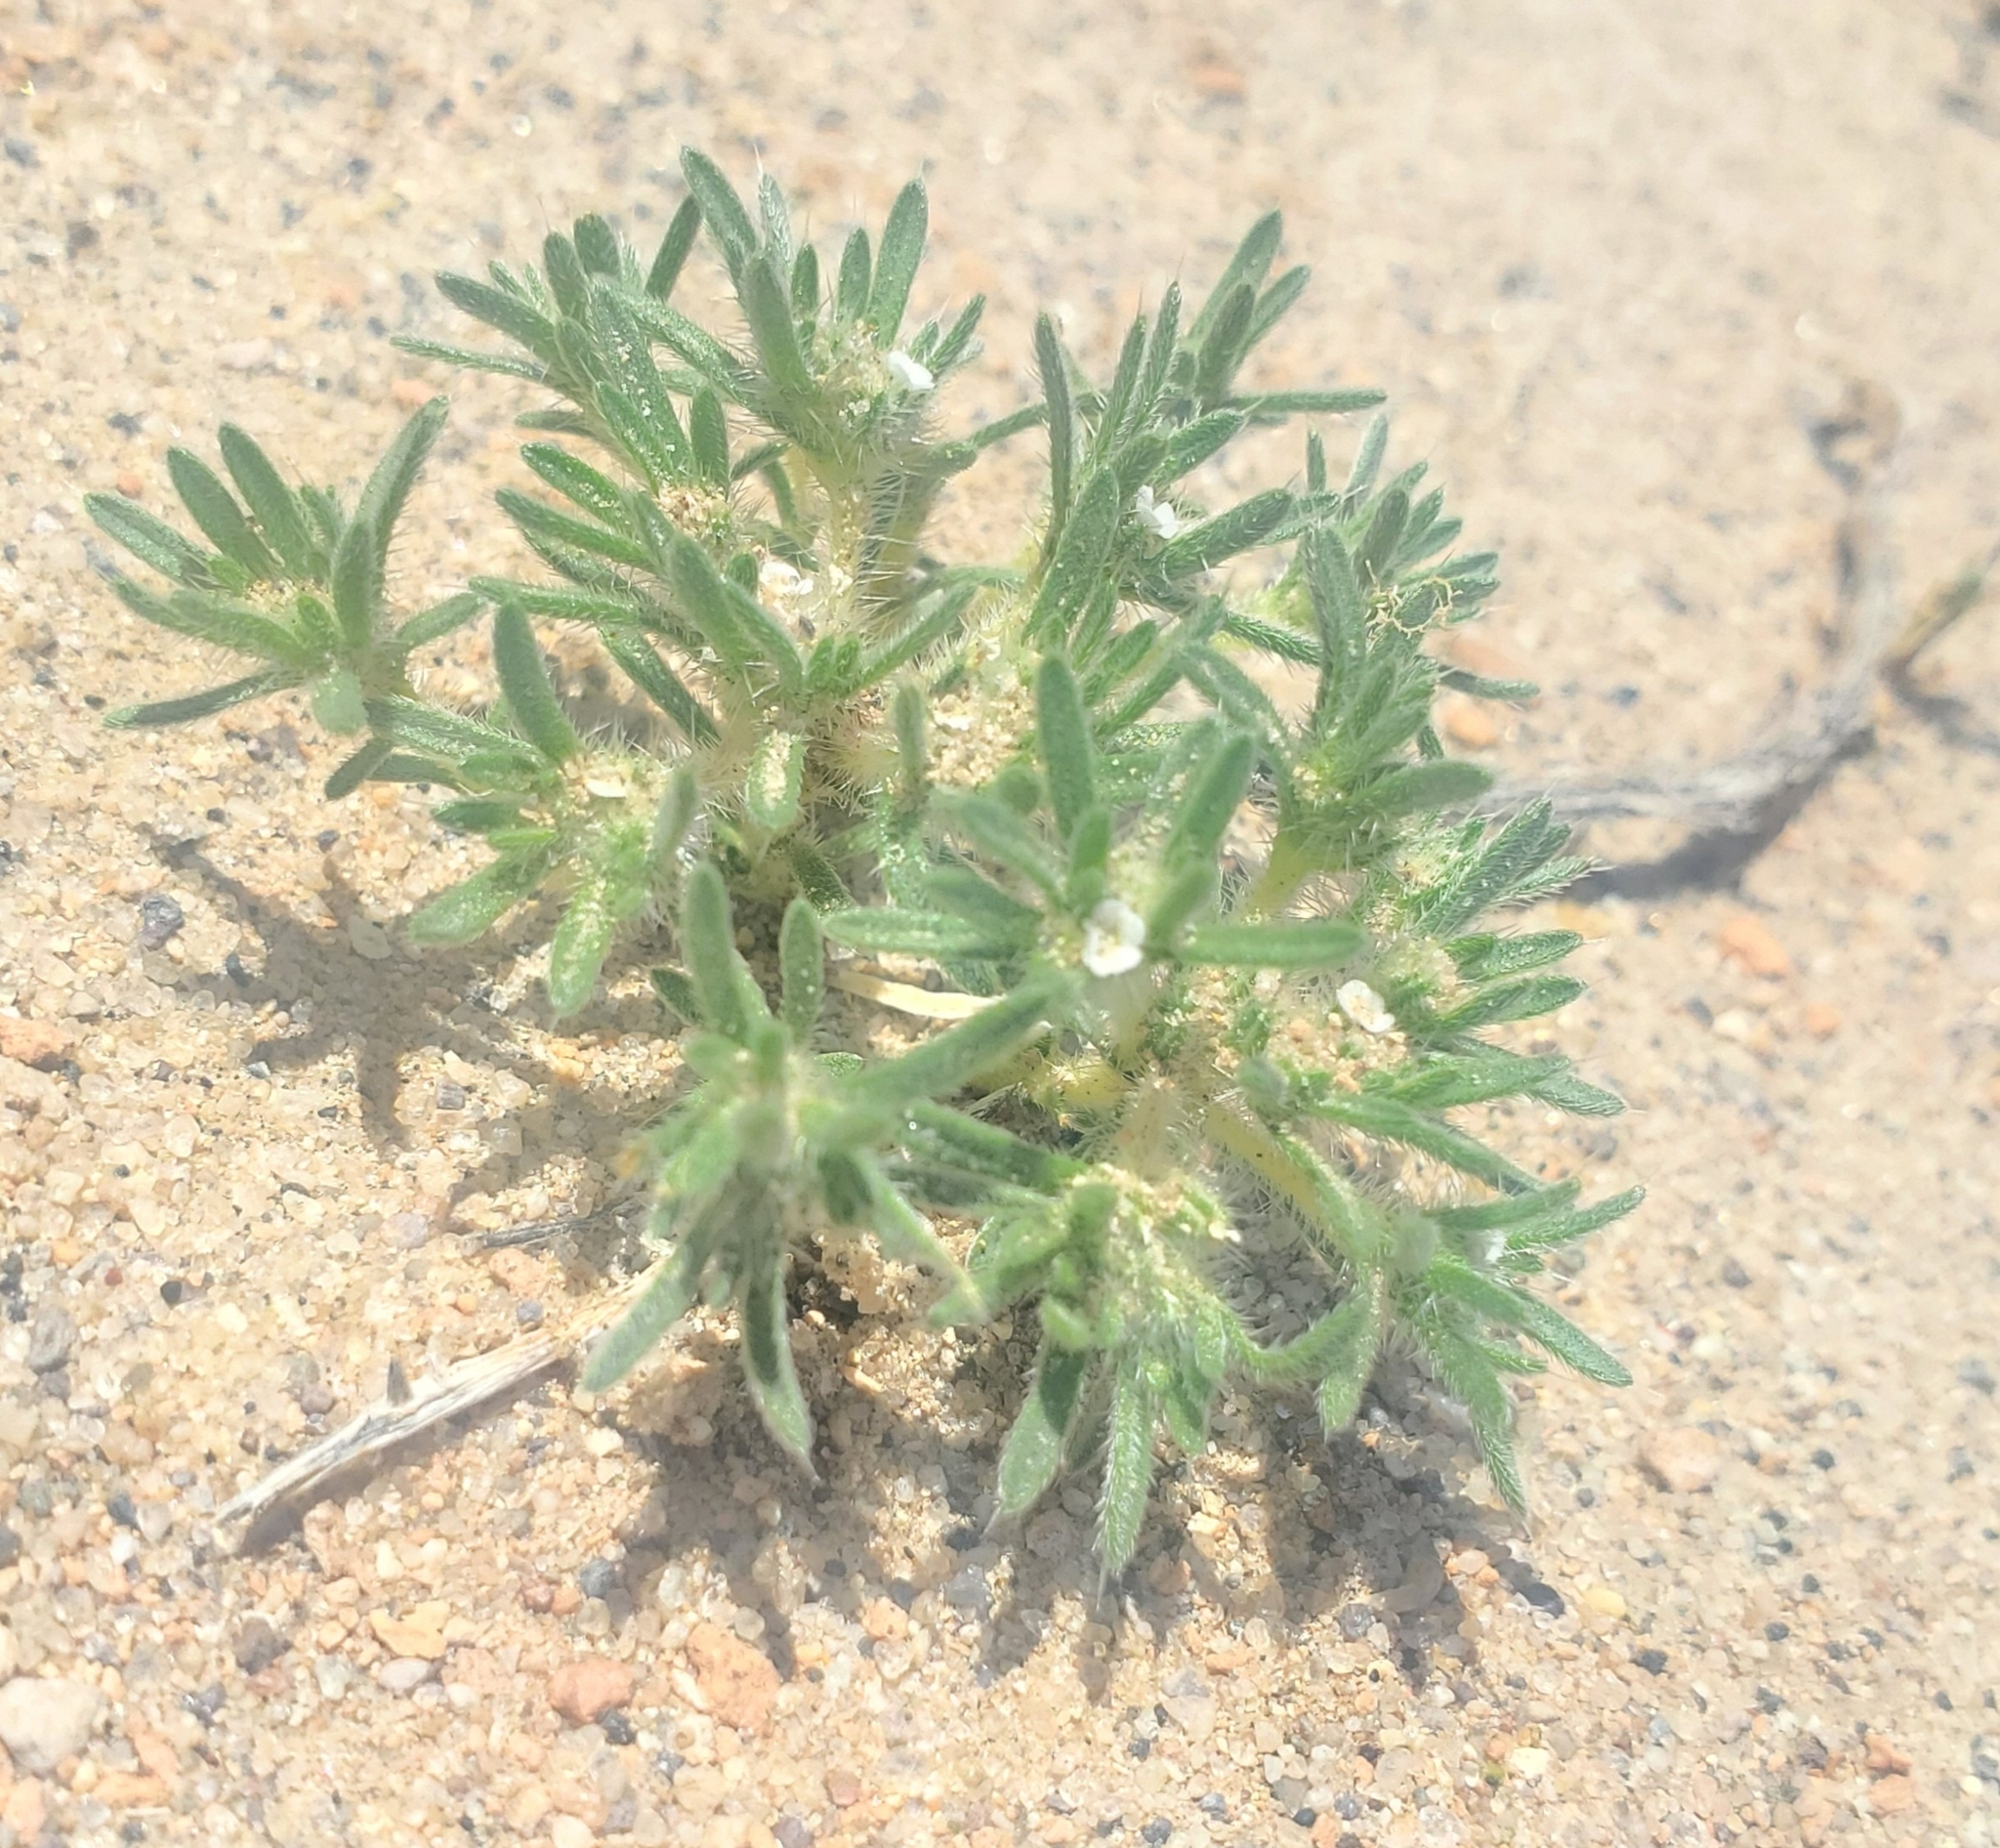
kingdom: Plantae
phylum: Tracheophyta
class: Magnoliopsida
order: Boraginales
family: Boraginaceae
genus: Greeneocharis
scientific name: Greeneocharis circumscissa
